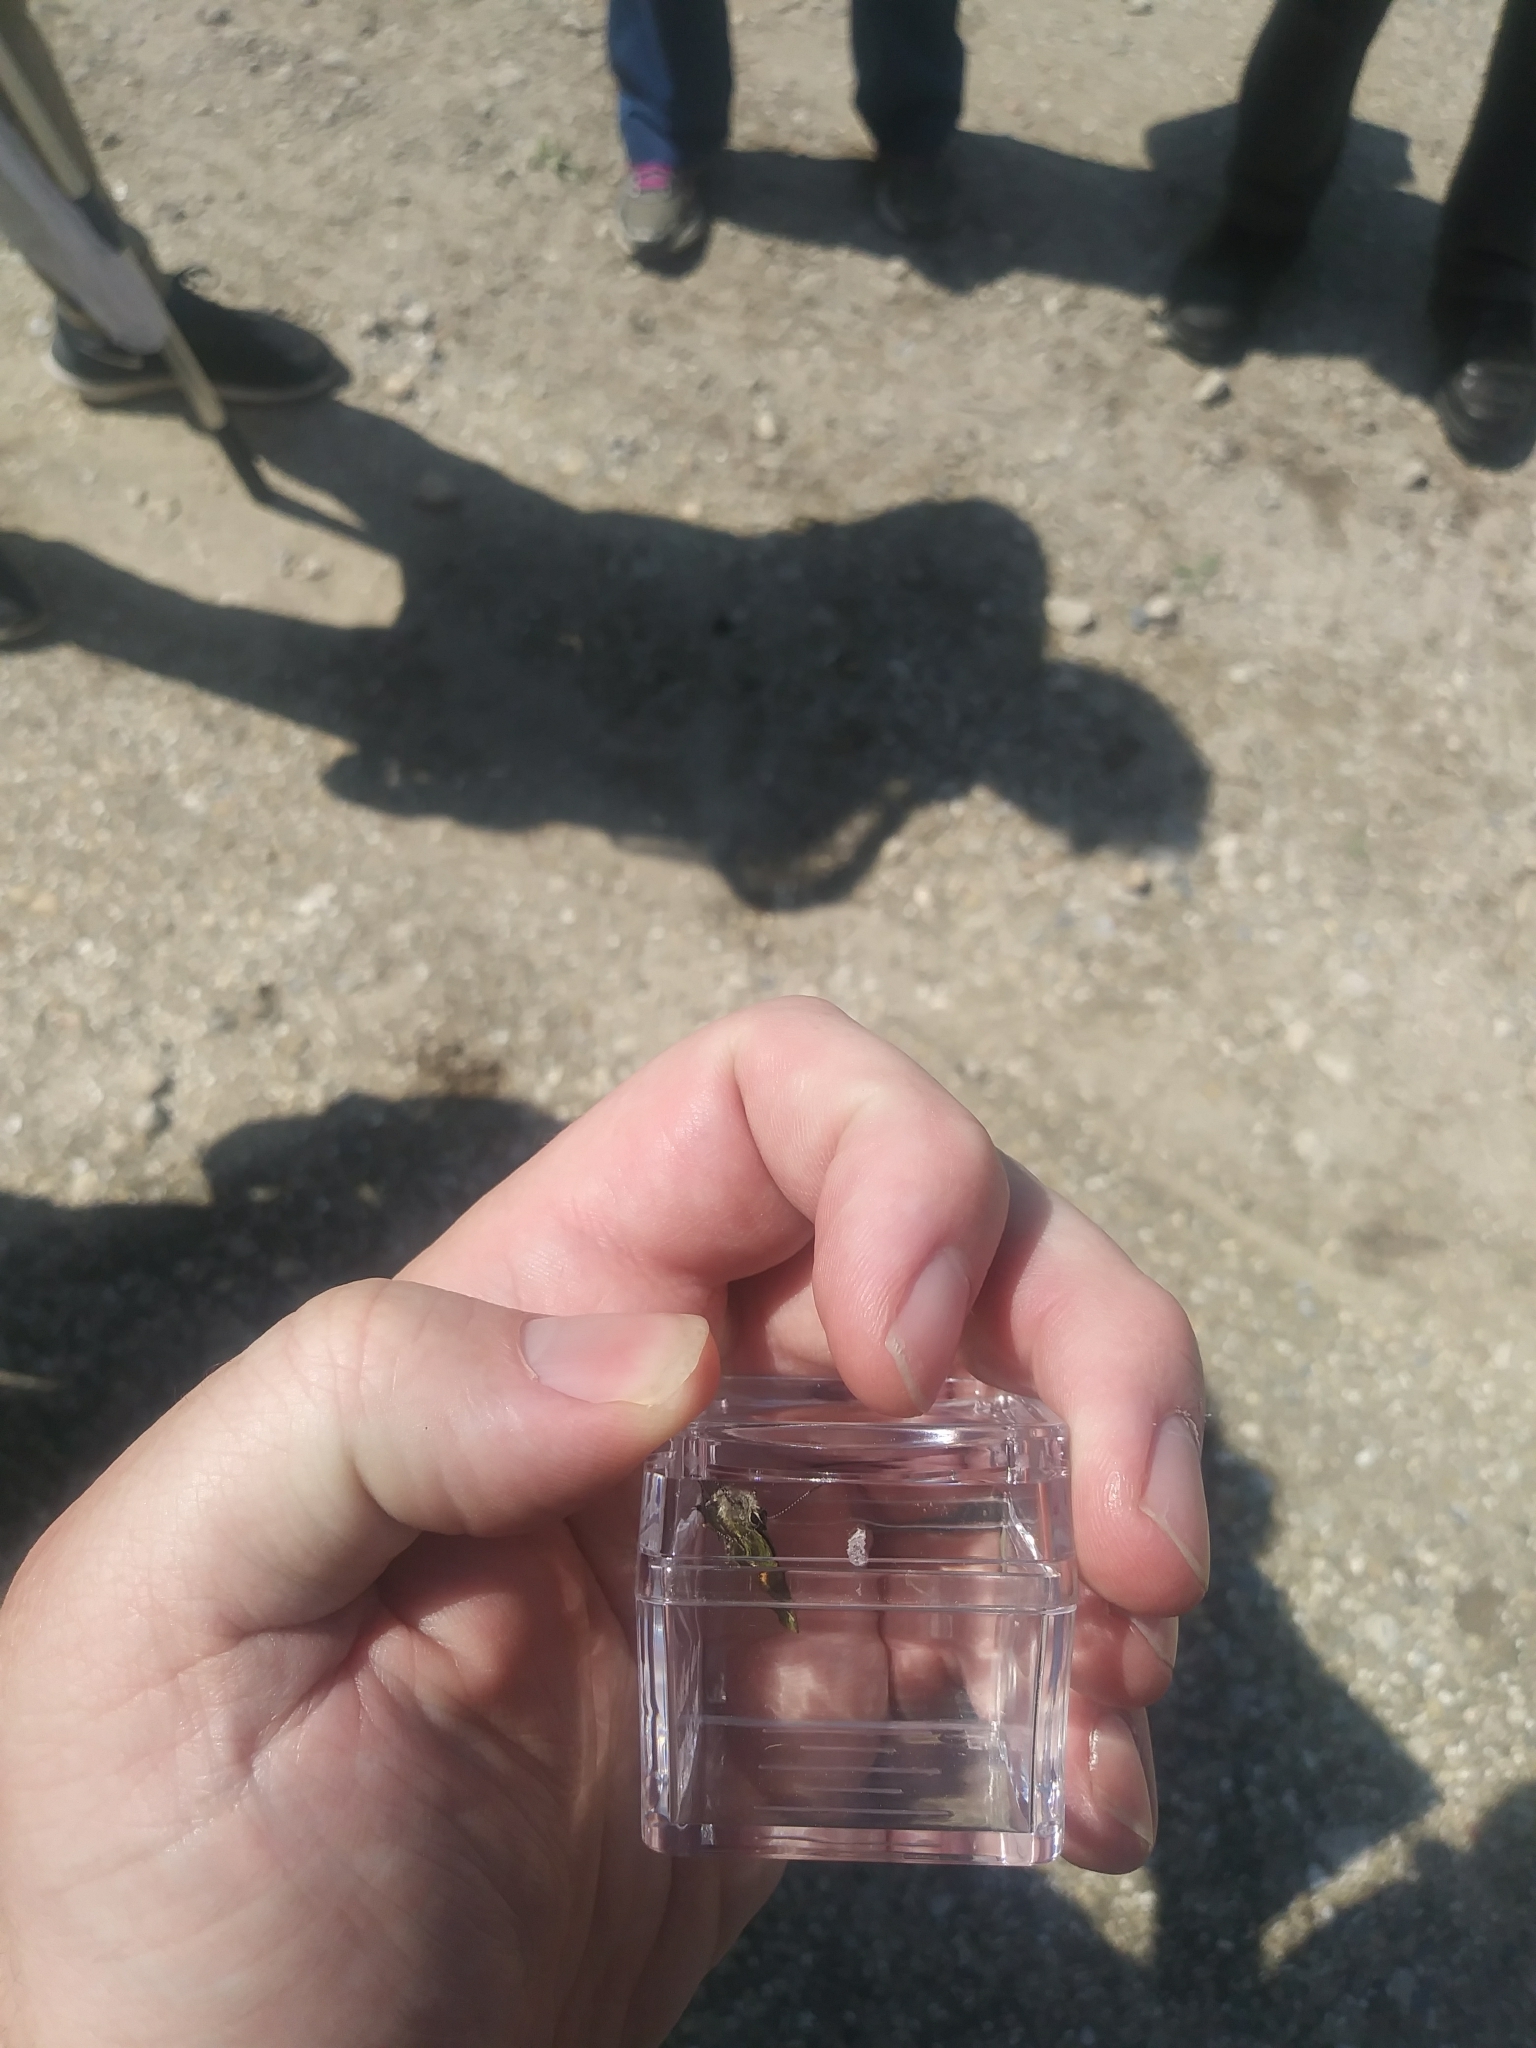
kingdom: Animalia
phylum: Arthropoda
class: Insecta
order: Lepidoptera
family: Lycaenidae
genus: Mitoura
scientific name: Mitoura gryneus
